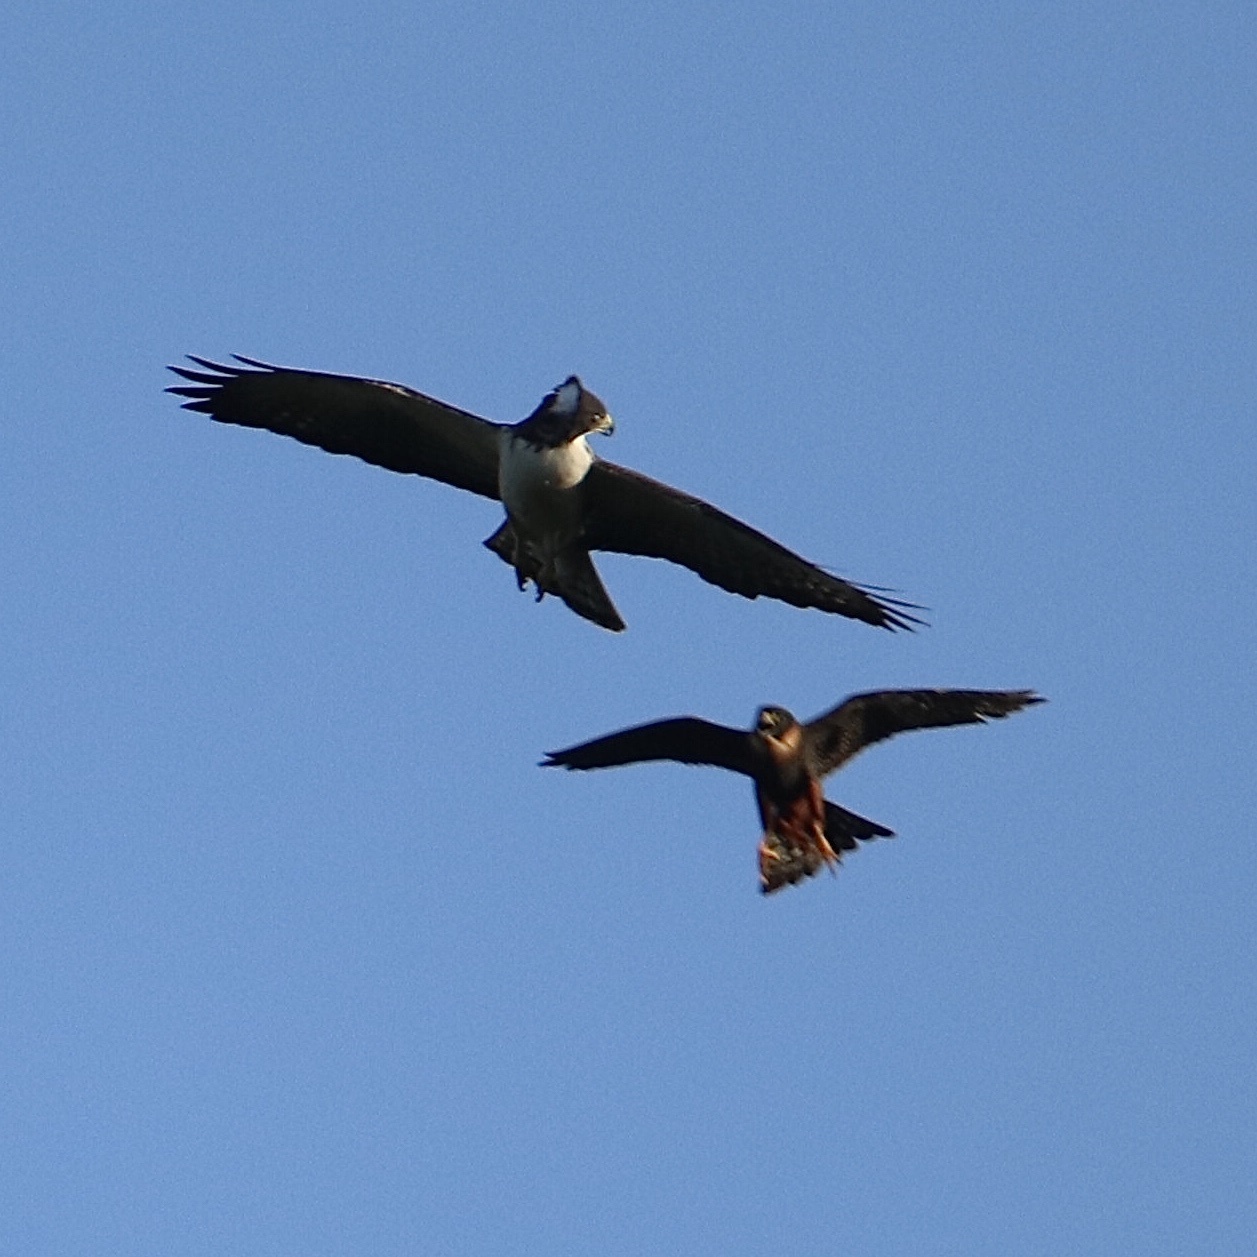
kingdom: Animalia
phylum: Chordata
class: Aves
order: Falconiformes
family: Falconidae
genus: Falco
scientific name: Falco rufigularis
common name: Bat falcon
